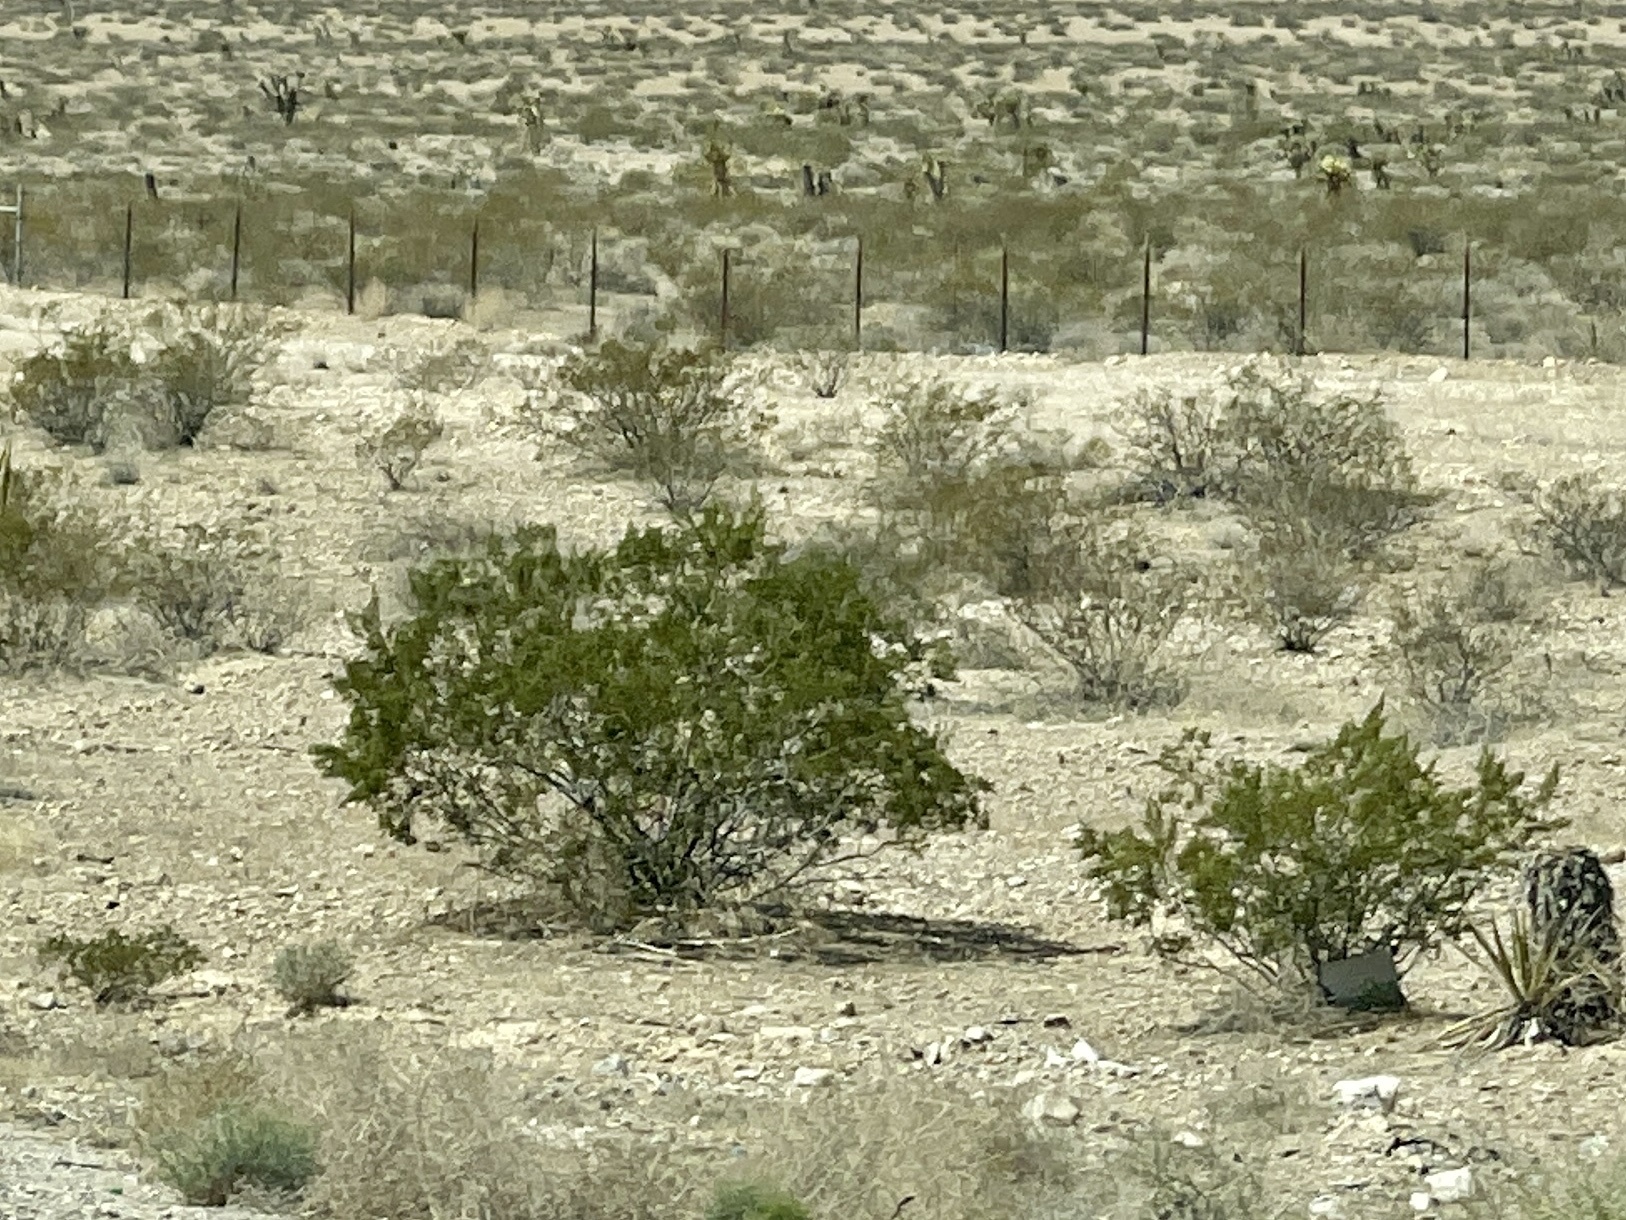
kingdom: Plantae
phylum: Tracheophyta
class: Magnoliopsida
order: Zygophyllales
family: Zygophyllaceae
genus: Larrea
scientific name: Larrea tridentata
